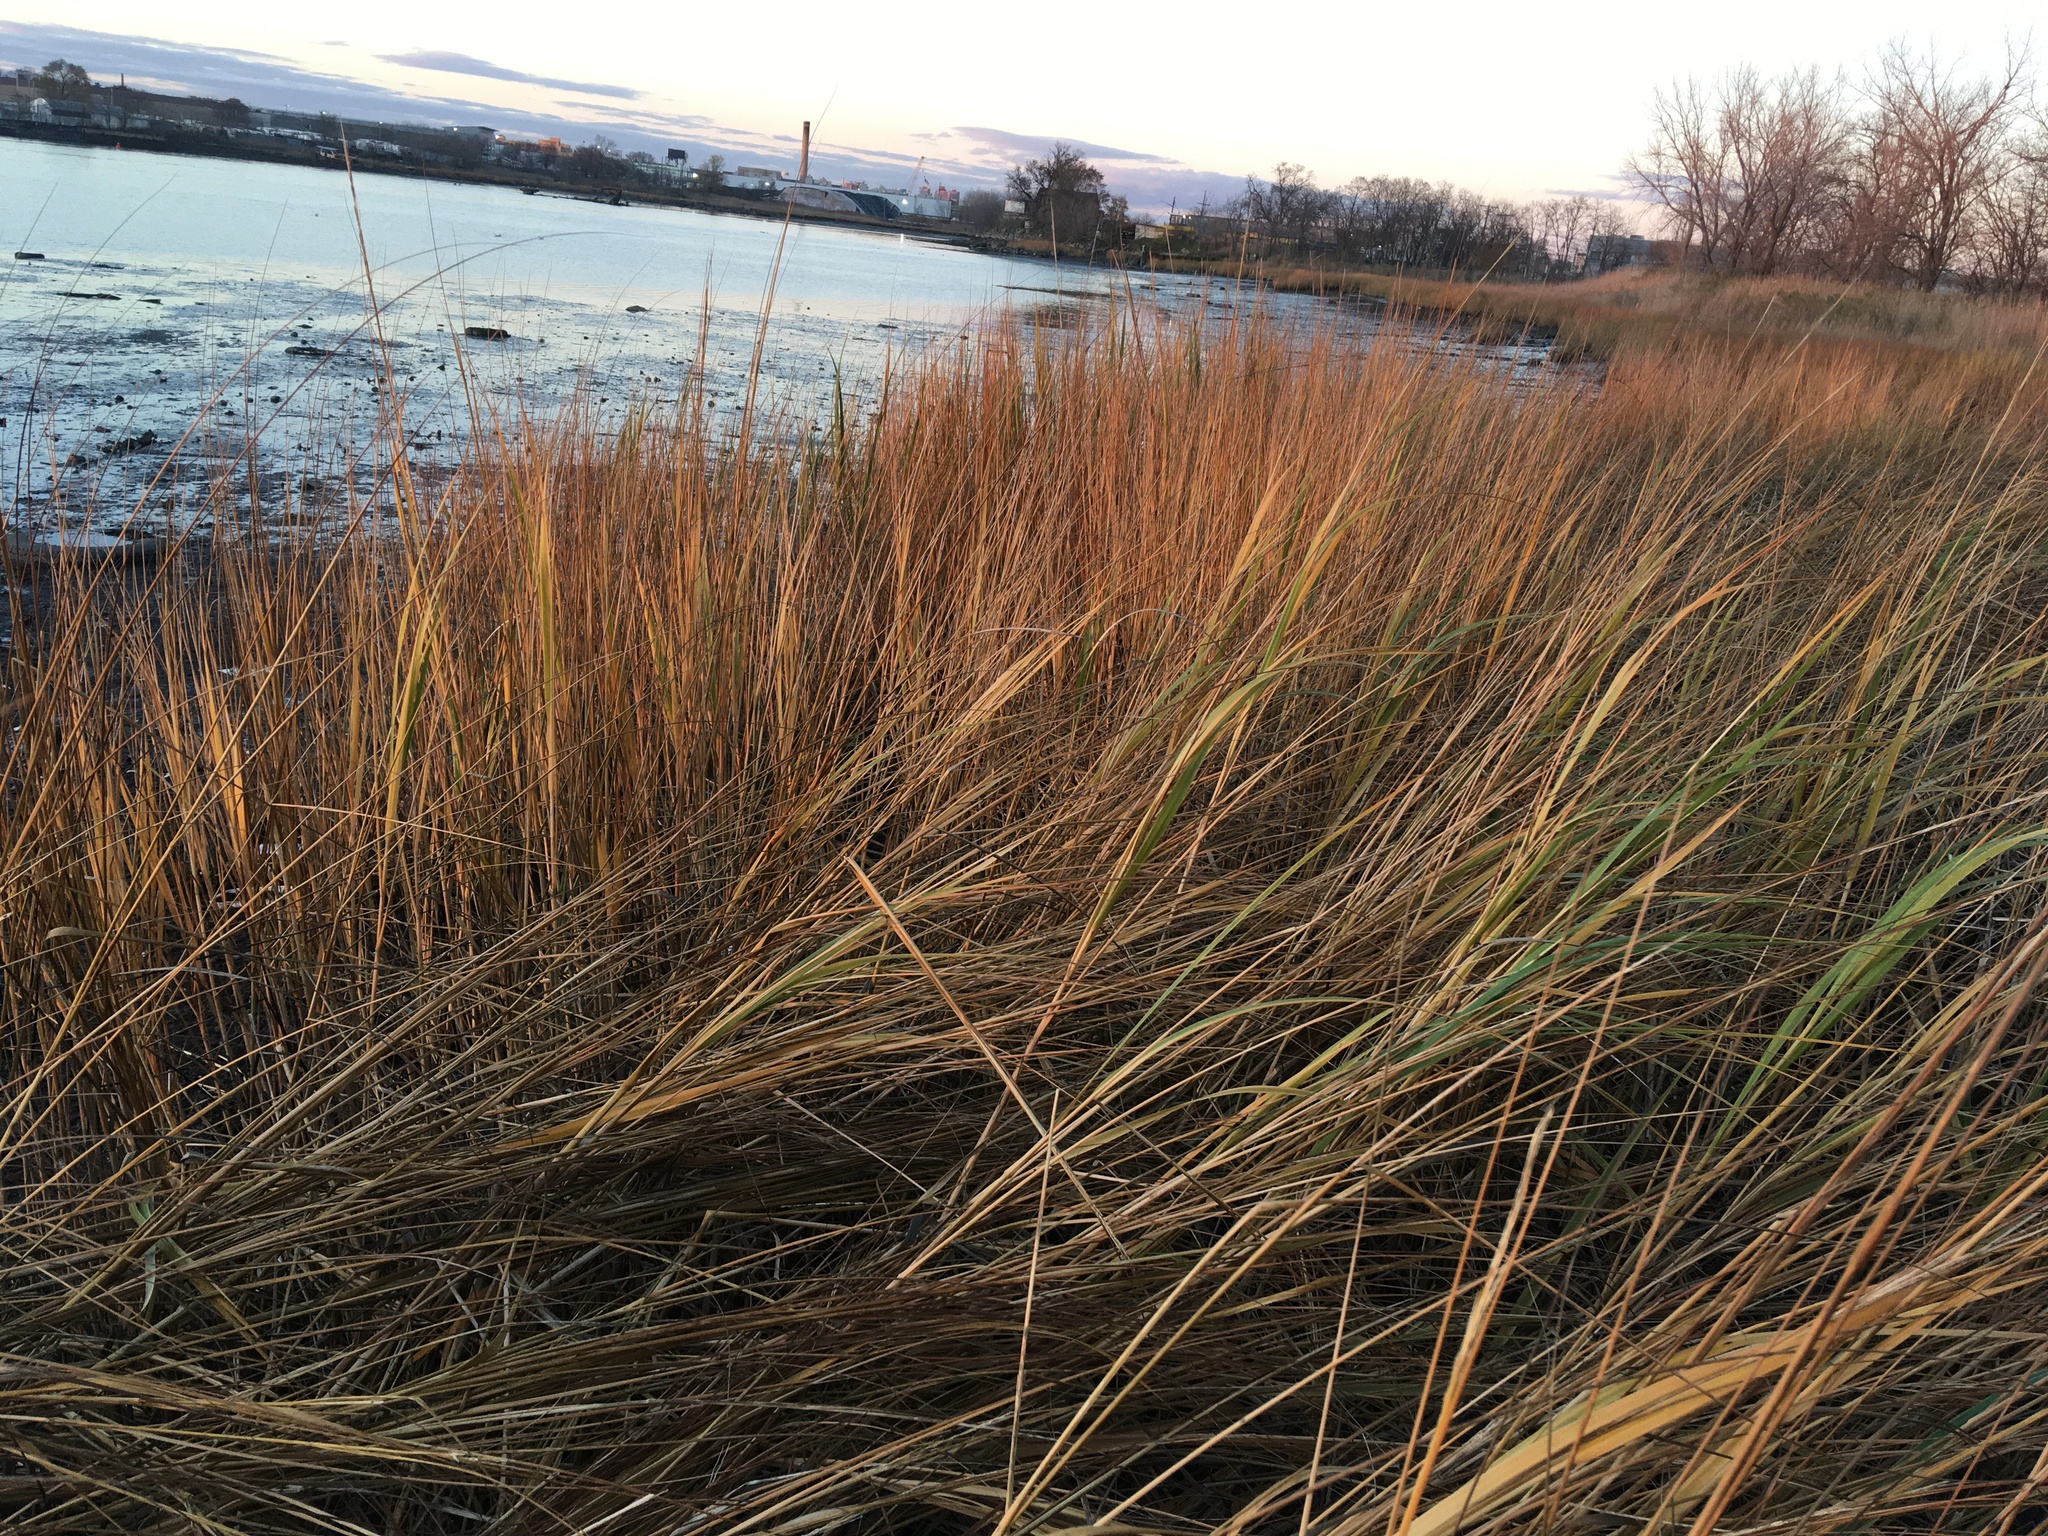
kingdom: Plantae
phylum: Tracheophyta
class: Liliopsida
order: Poales
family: Poaceae
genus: Sporobolus
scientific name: Sporobolus alterniflorus
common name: Atlantic cordgrass
